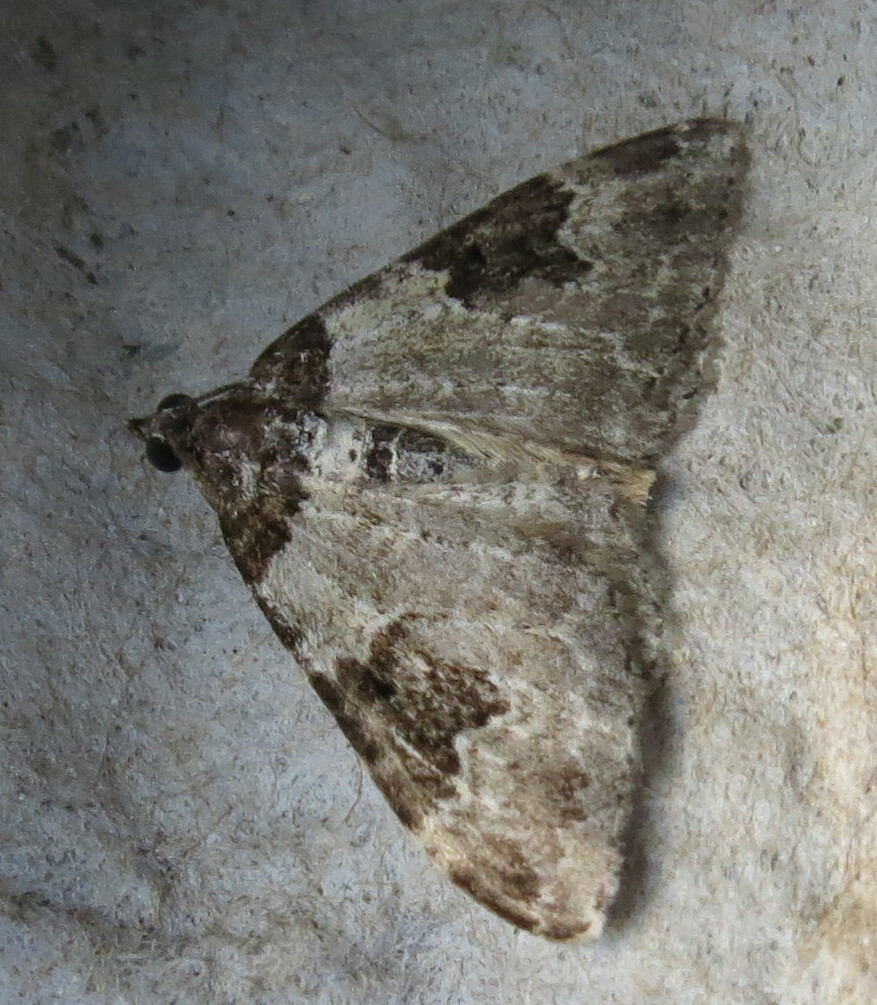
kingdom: Animalia
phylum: Arthropoda
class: Insecta
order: Lepidoptera
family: Geometridae
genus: Xanthorhoe
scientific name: Xanthorhoe fluctuata
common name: Garden carpet
